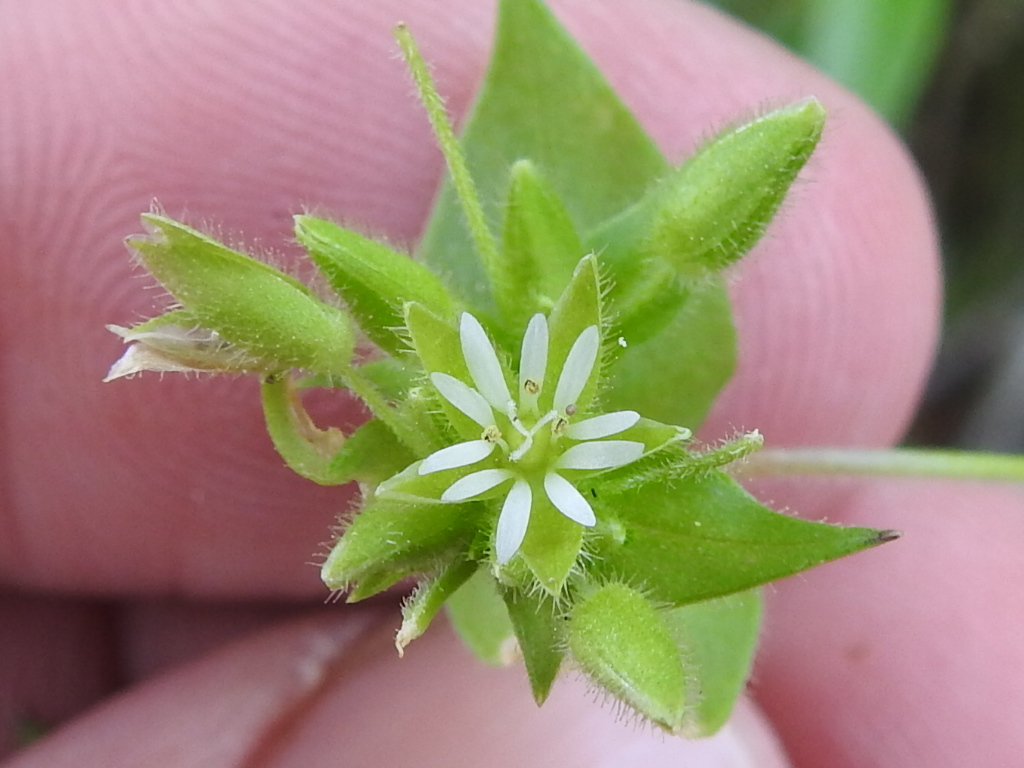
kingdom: Plantae
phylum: Tracheophyta
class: Magnoliopsida
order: Caryophyllales
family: Caryophyllaceae
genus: Stellaria
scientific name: Stellaria media
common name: Common chickweed
